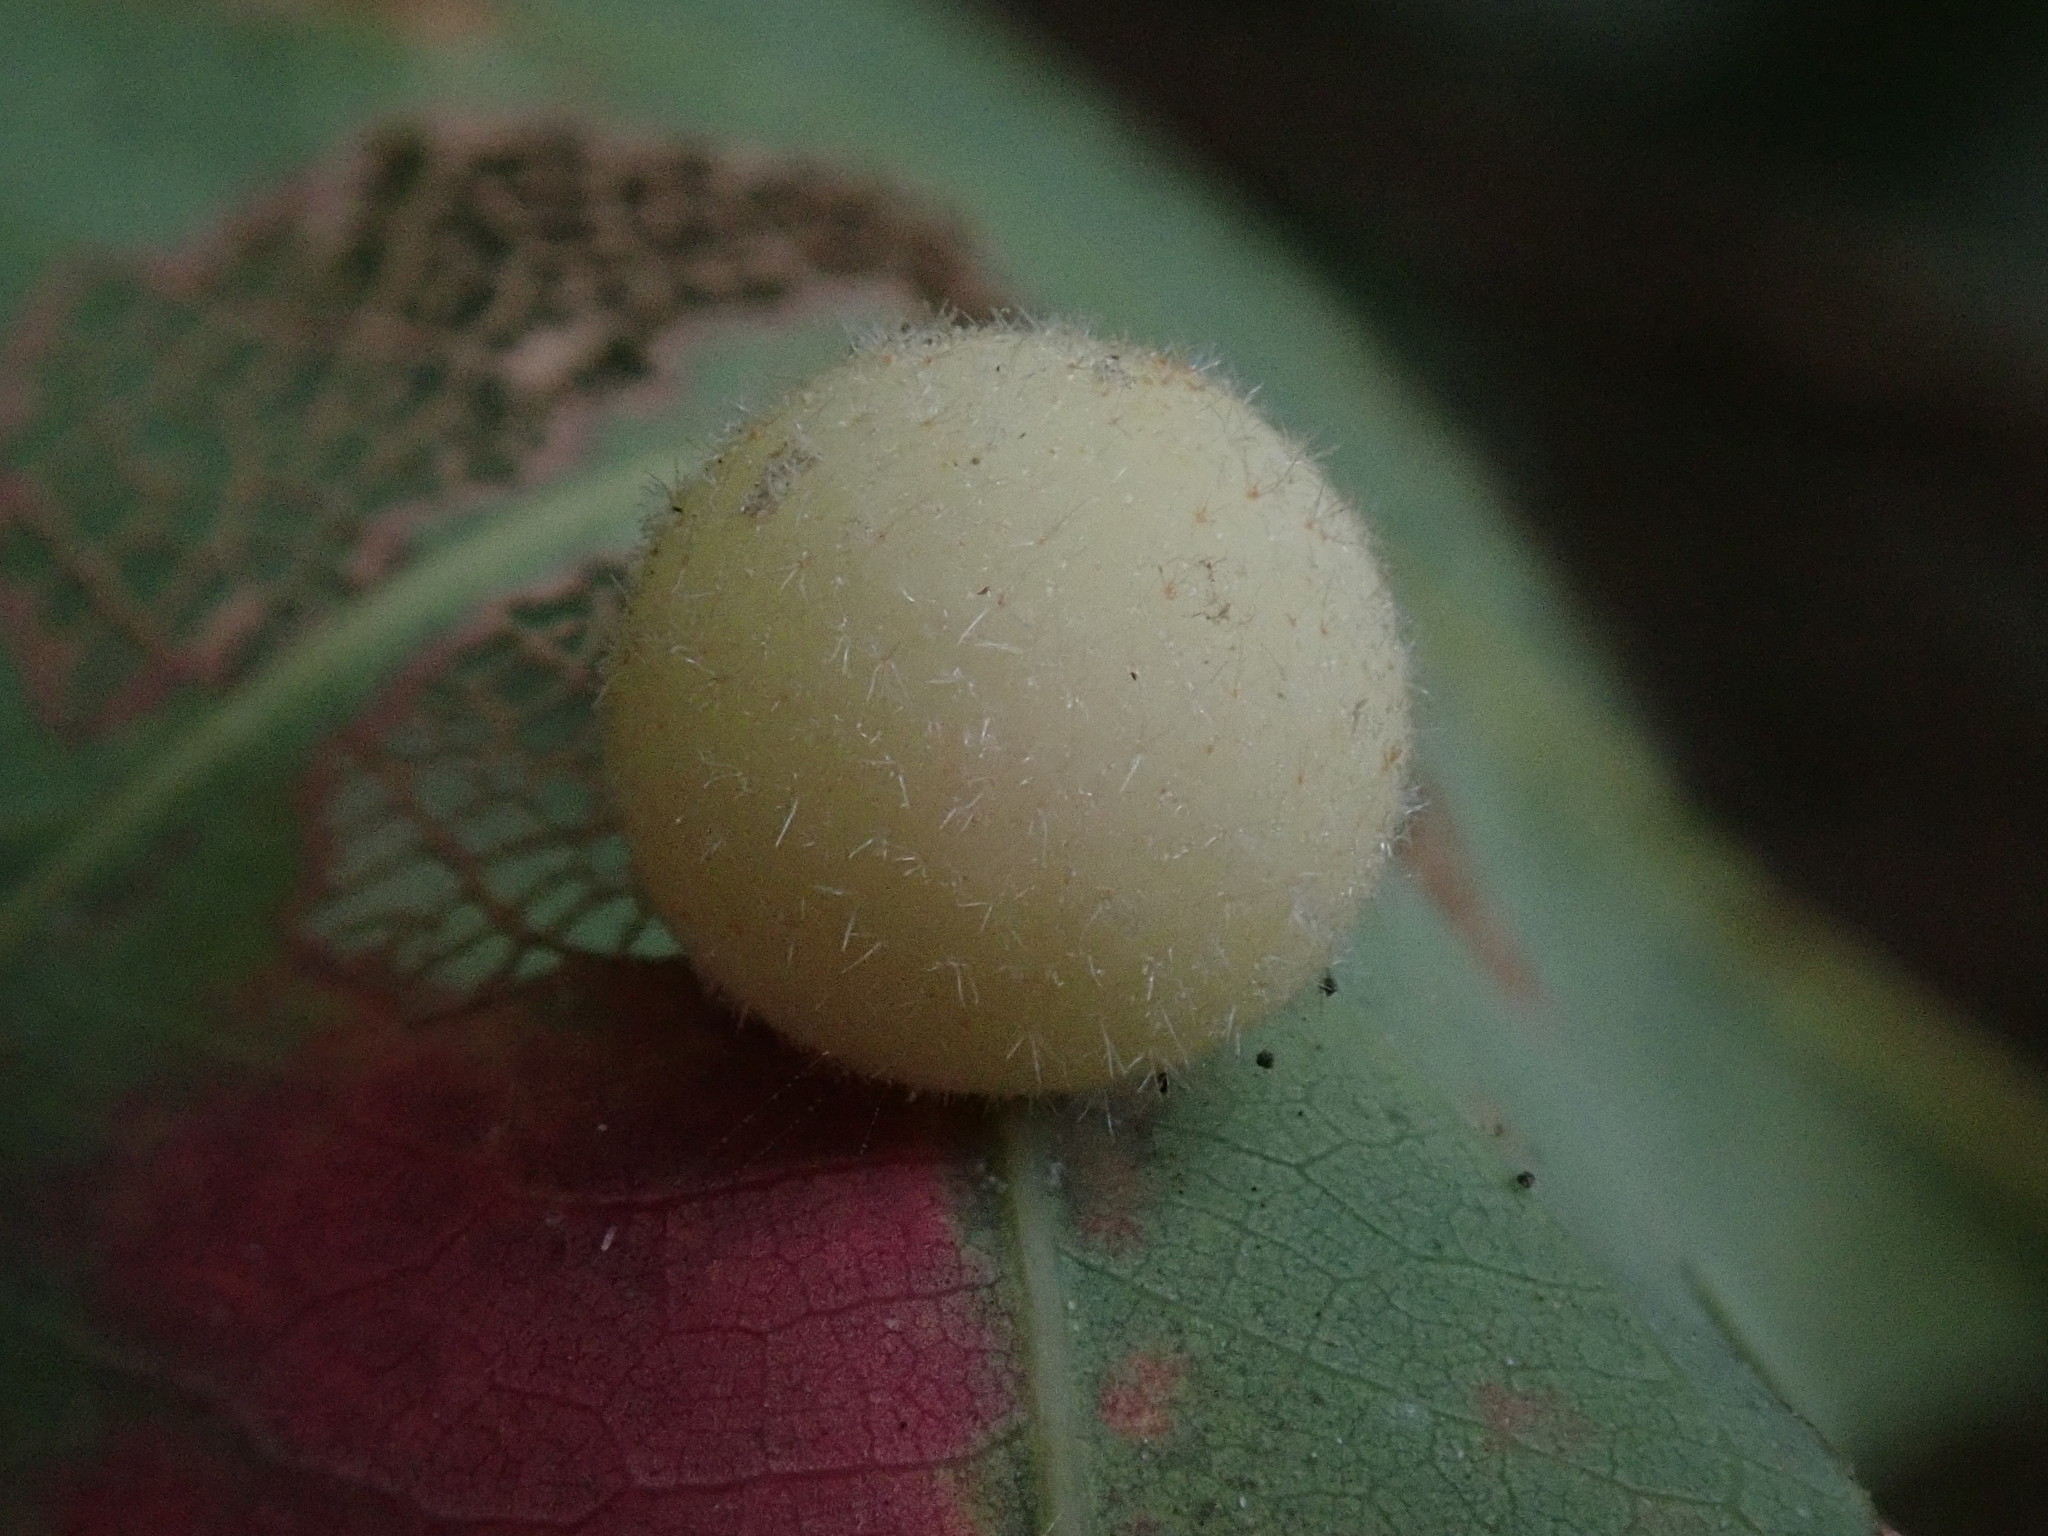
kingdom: Animalia
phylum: Arthropoda
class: Insecta
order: Hymenoptera
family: Cynipidae
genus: Philonix
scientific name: Philonix fulvicollis
